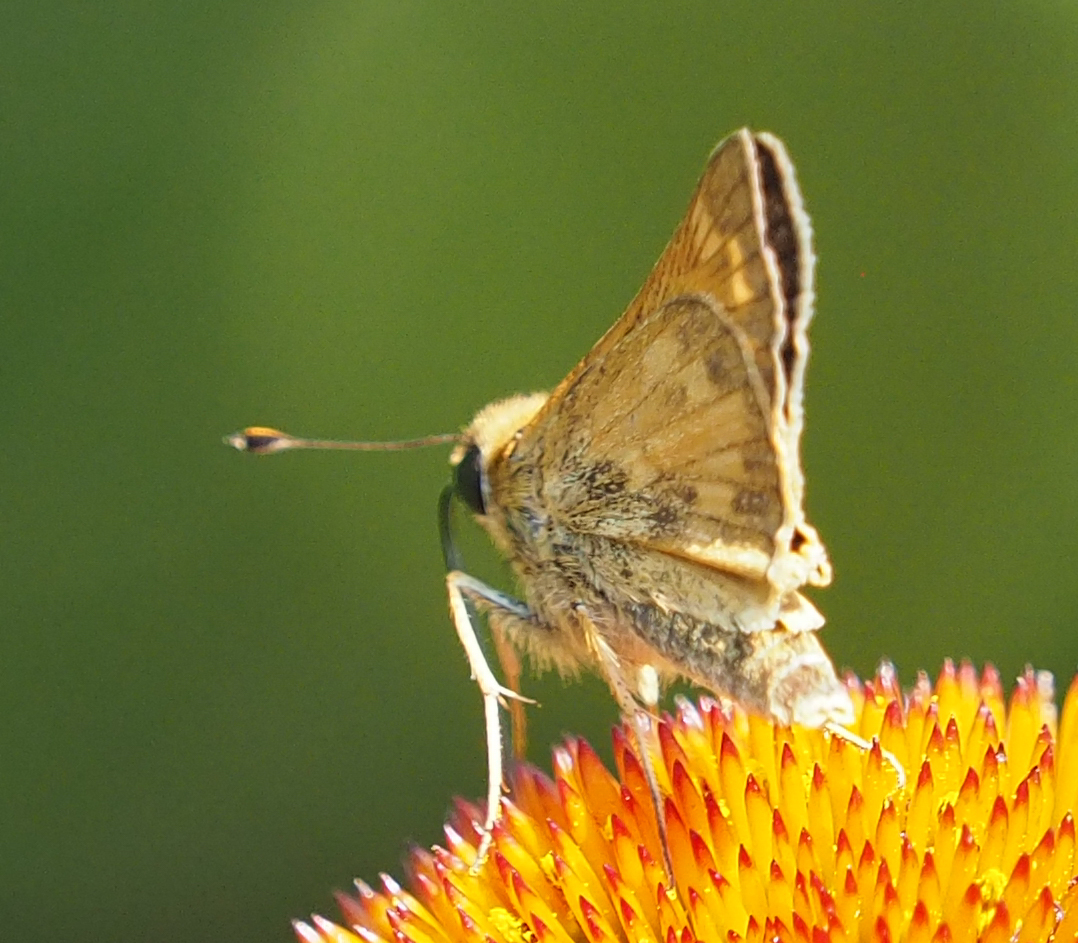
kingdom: Animalia
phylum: Arthropoda
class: Insecta
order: Lepidoptera
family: Hesperiidae
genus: Atalopedes
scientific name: Atalopedes
